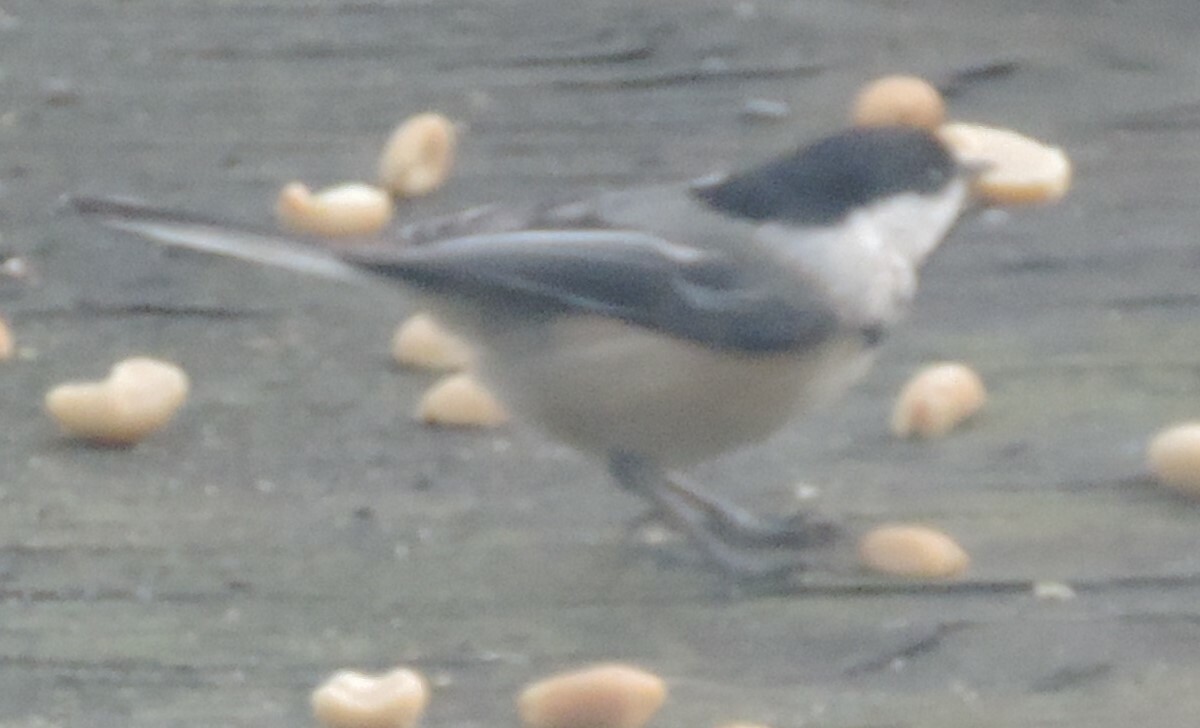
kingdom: Animalia
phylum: Chordata
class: Aves
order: Passeriformes
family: Paridae
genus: Poecile
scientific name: Poecile atricapillus
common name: Black-capped chickadee
